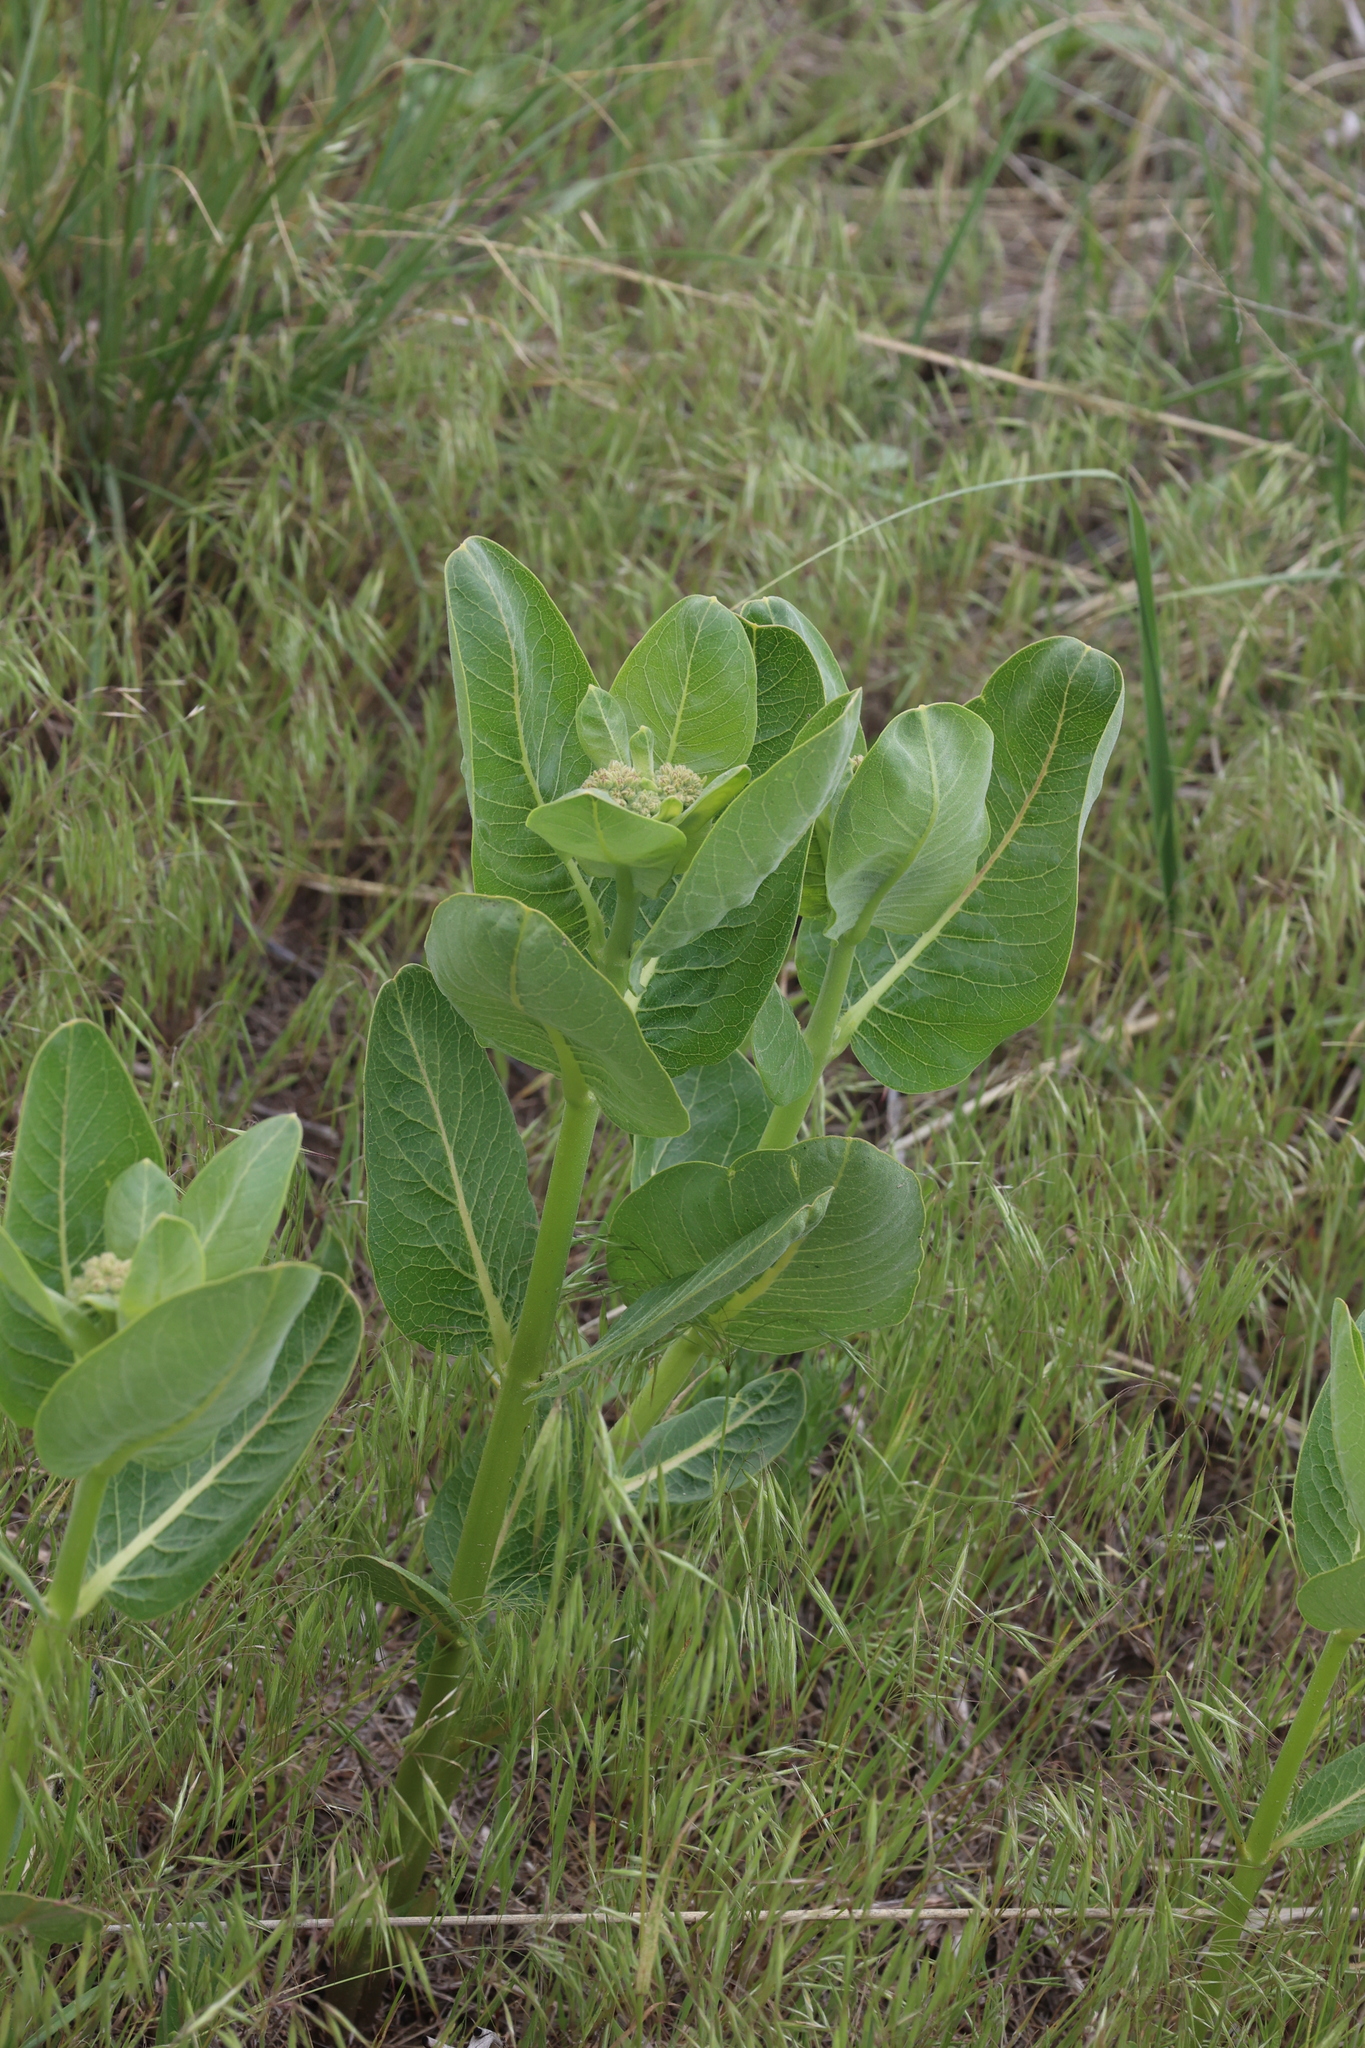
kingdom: Plantae
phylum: Tracheophyta
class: Magnoliopsida
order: Gentianales
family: Apocynaceae
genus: Asclepias
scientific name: Asclepias speciosa
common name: Showy milkweed
